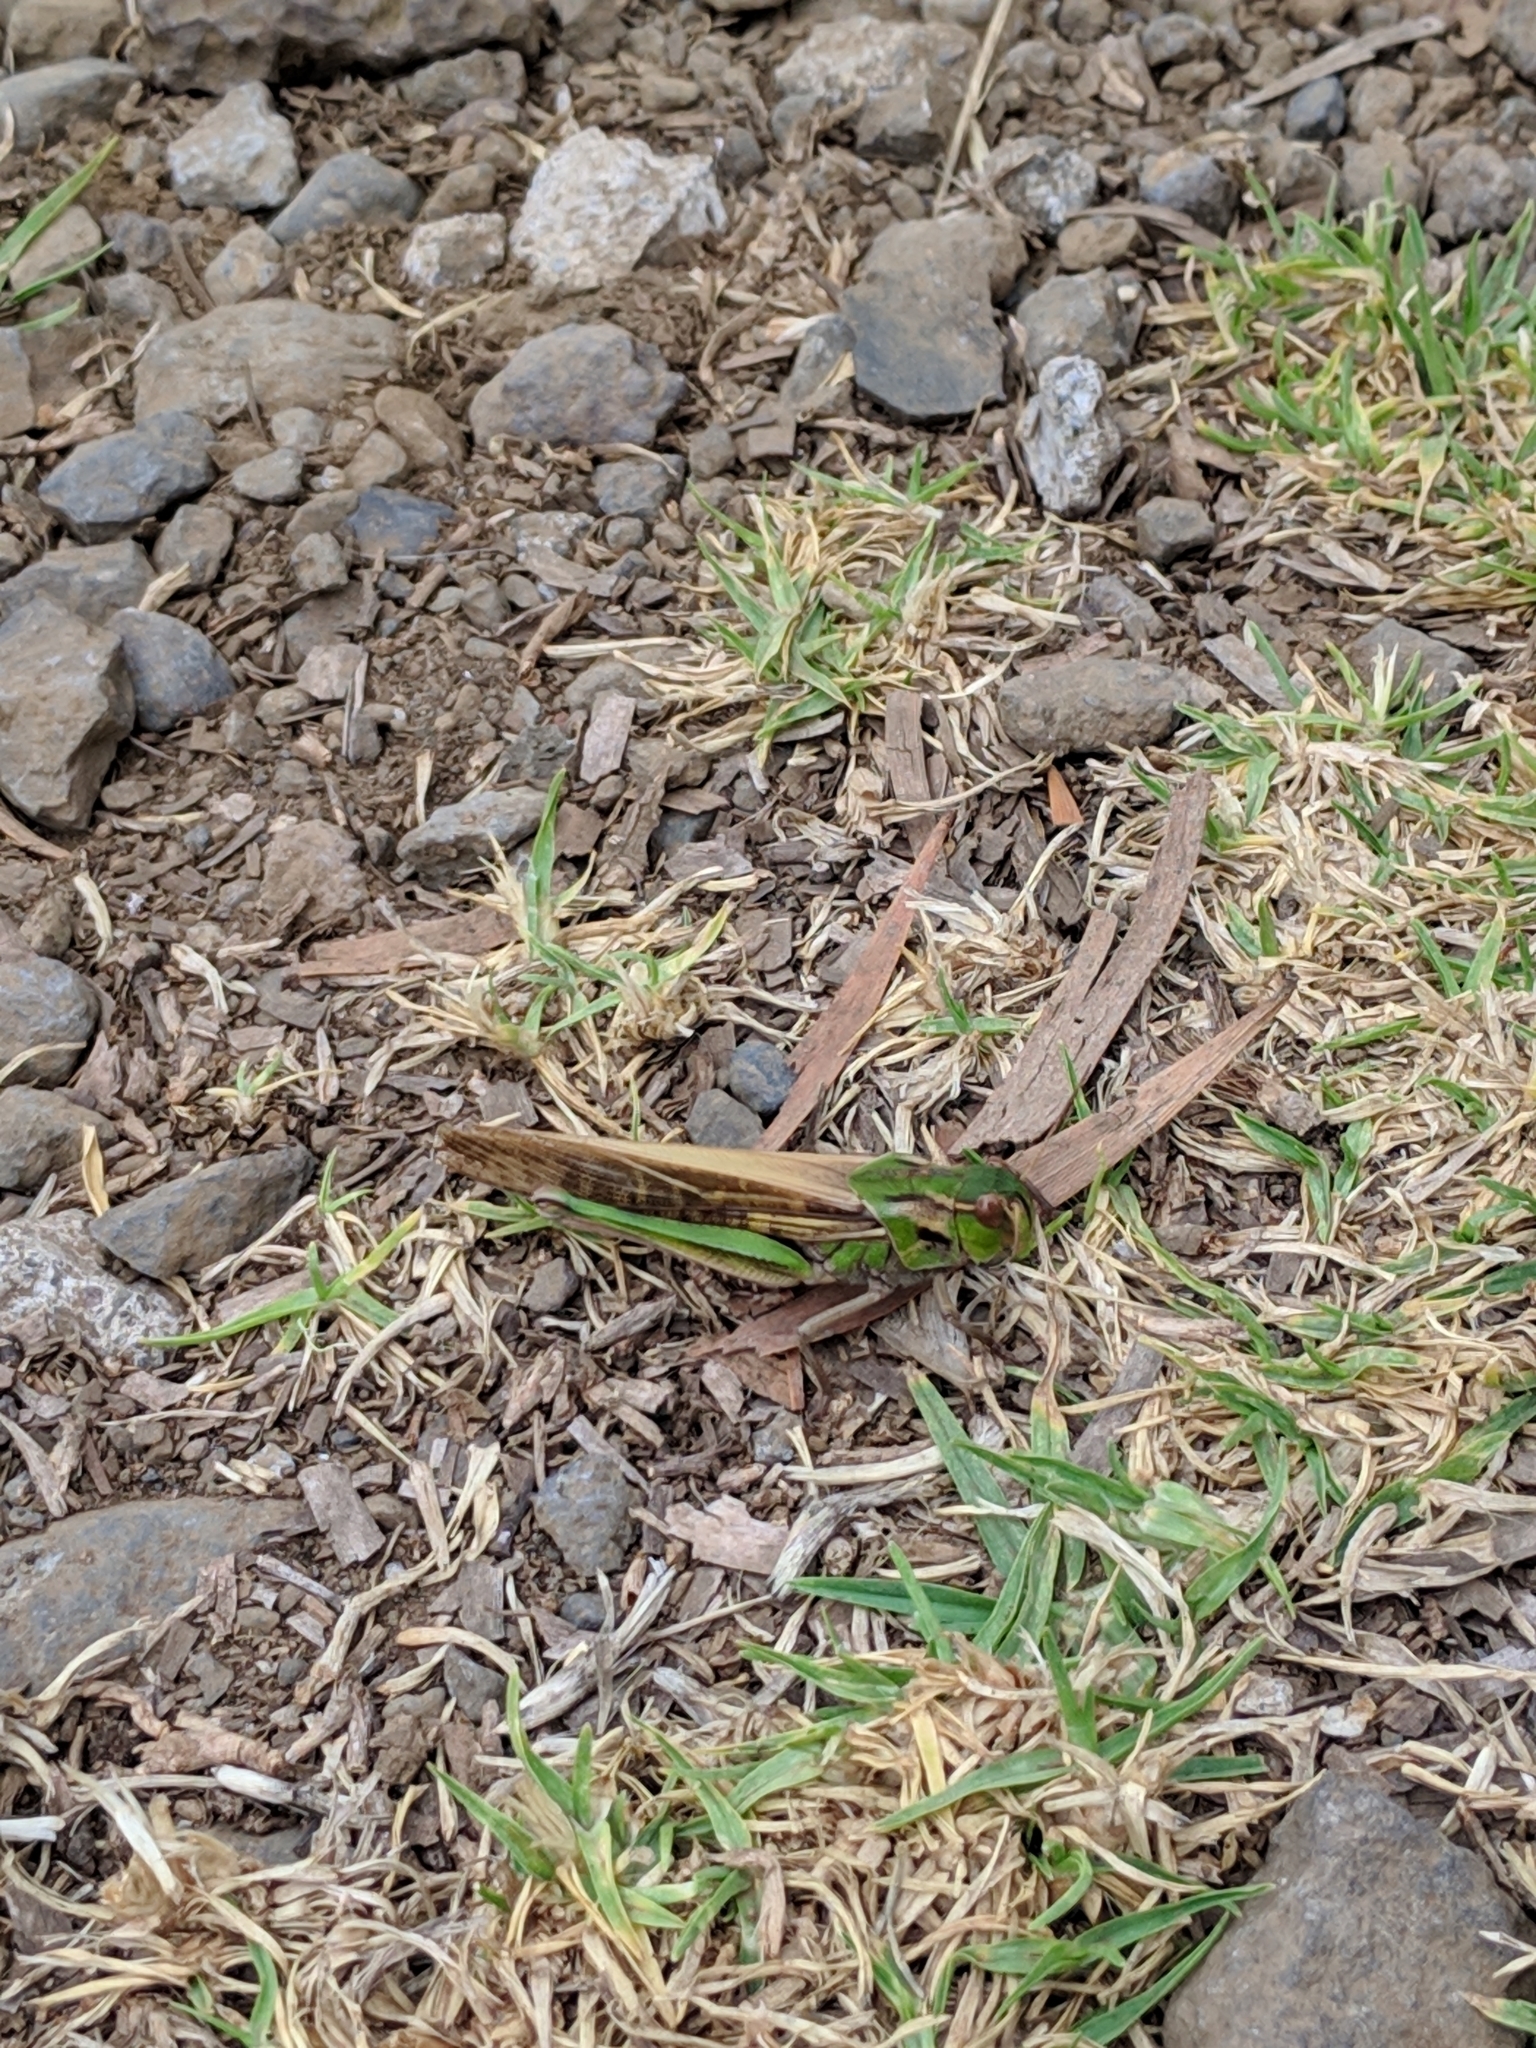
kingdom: Animalia
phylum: Arthropoda
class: Insecta
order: Orthoptera
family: Acrididae
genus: Locusta
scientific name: Locusta migratoria
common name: Migratory locust
